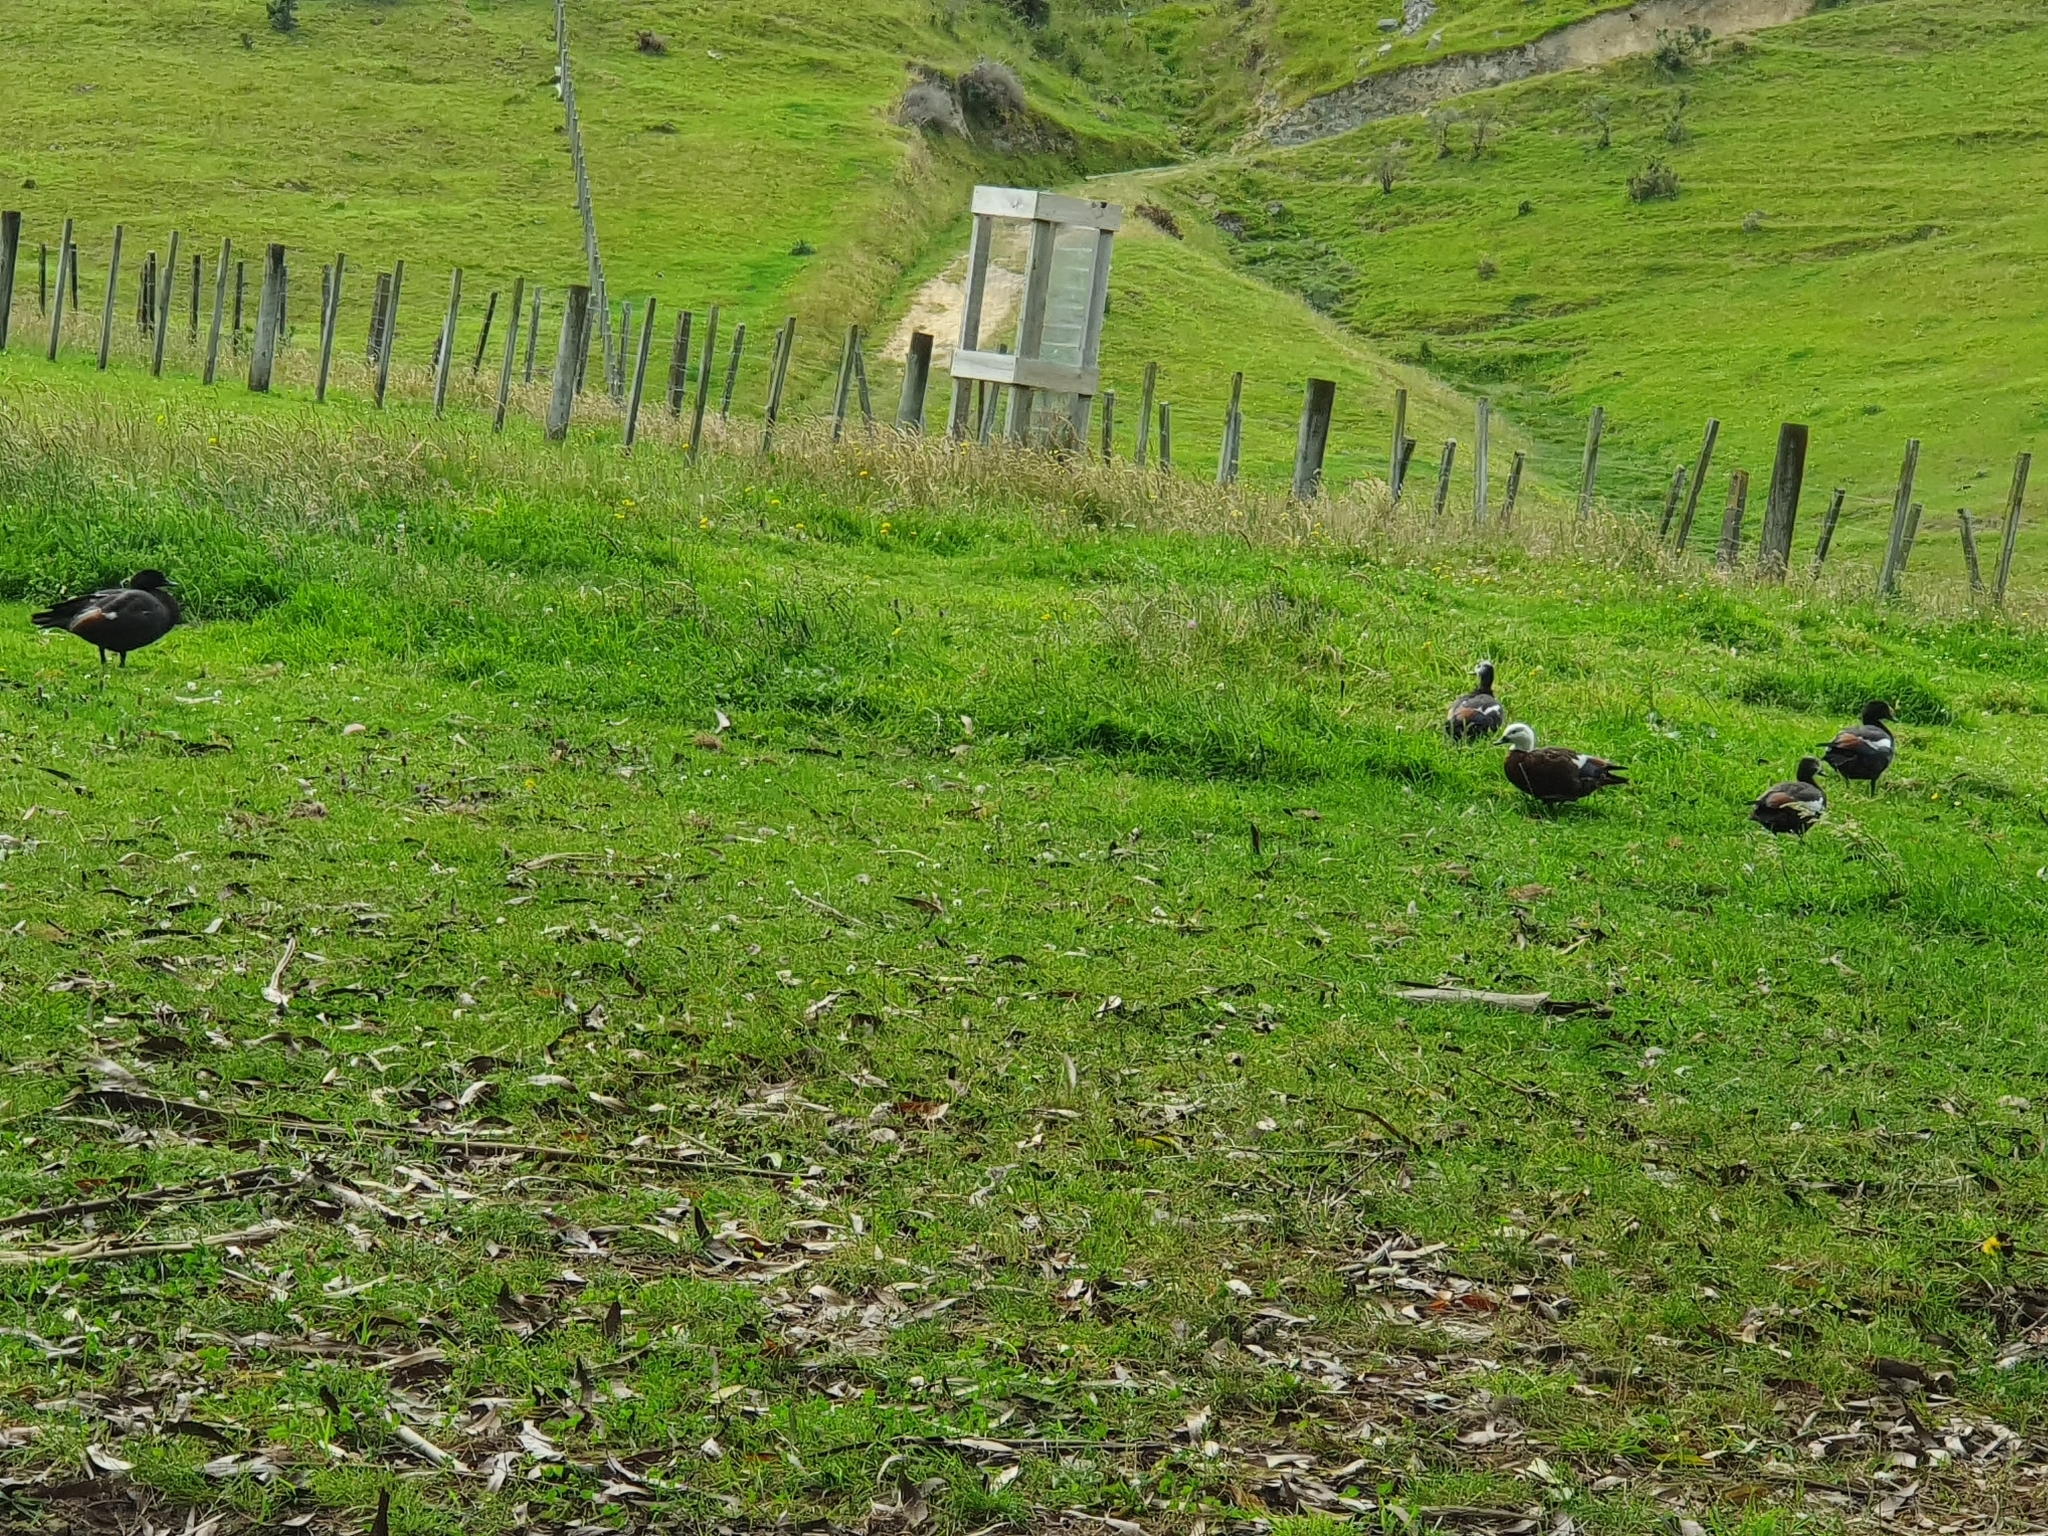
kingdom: Animalia
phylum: Chordata
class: Aves
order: Anseriformes
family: Anatidae
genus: Tadorna
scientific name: Tadorna variegata
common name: Paradise shelduck
